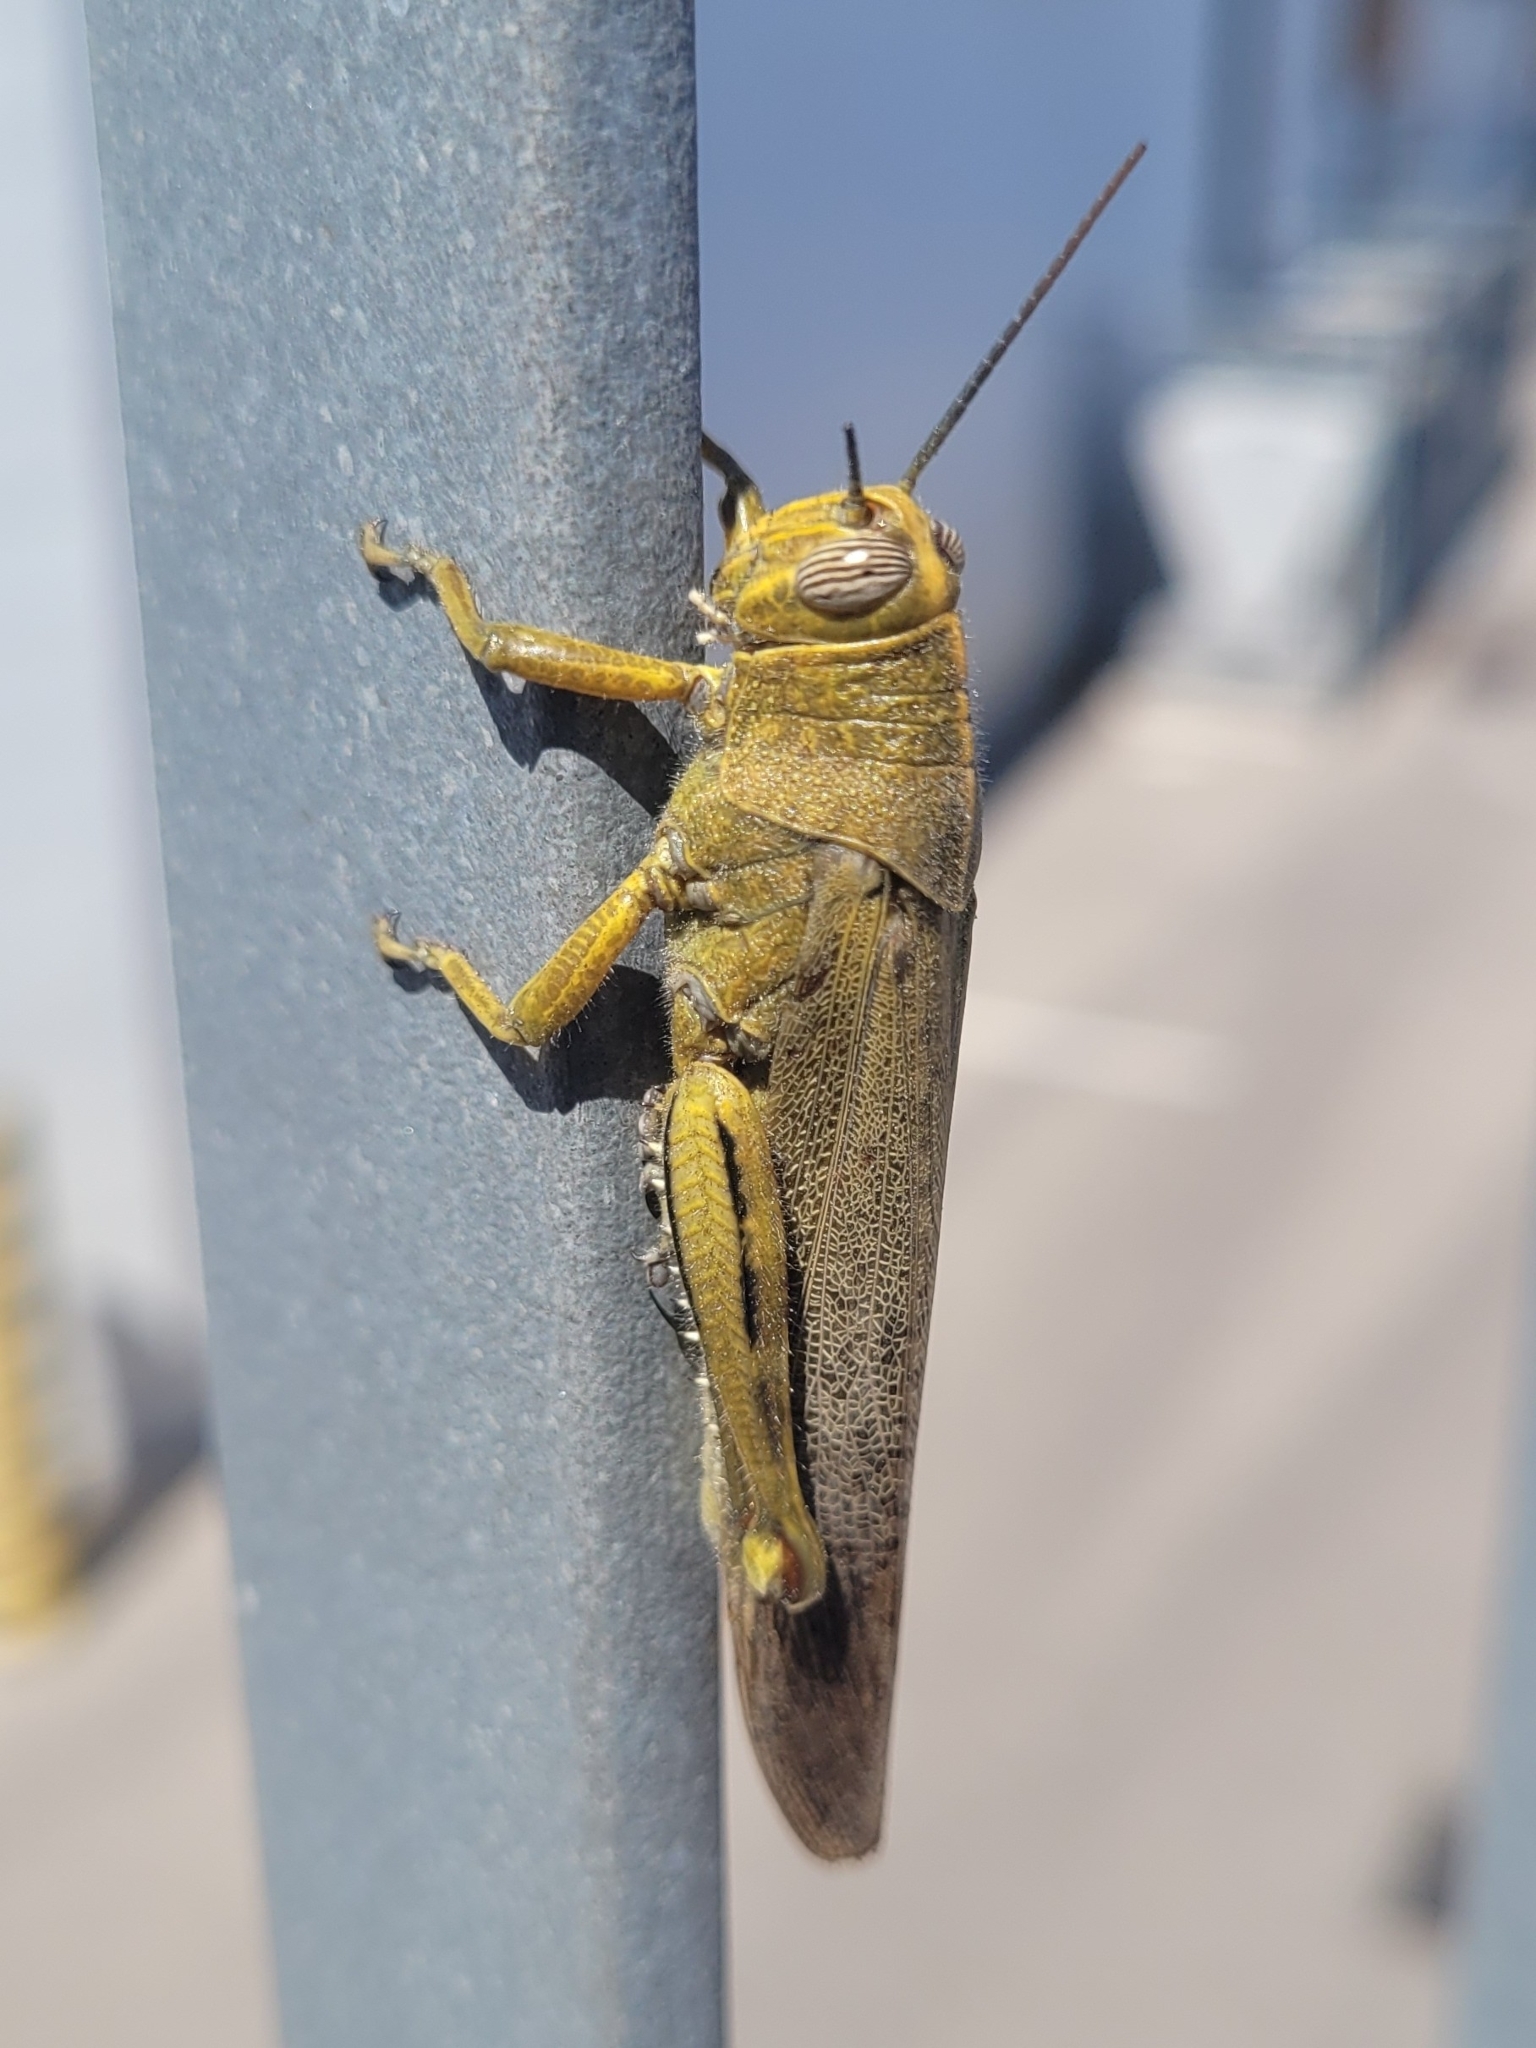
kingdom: Animalia
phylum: Arthropoda
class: Insecta
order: Orthoptera
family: Acrididae
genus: Anacridium
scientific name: Anacridium aegyptium
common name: Egyptian grasshopper
